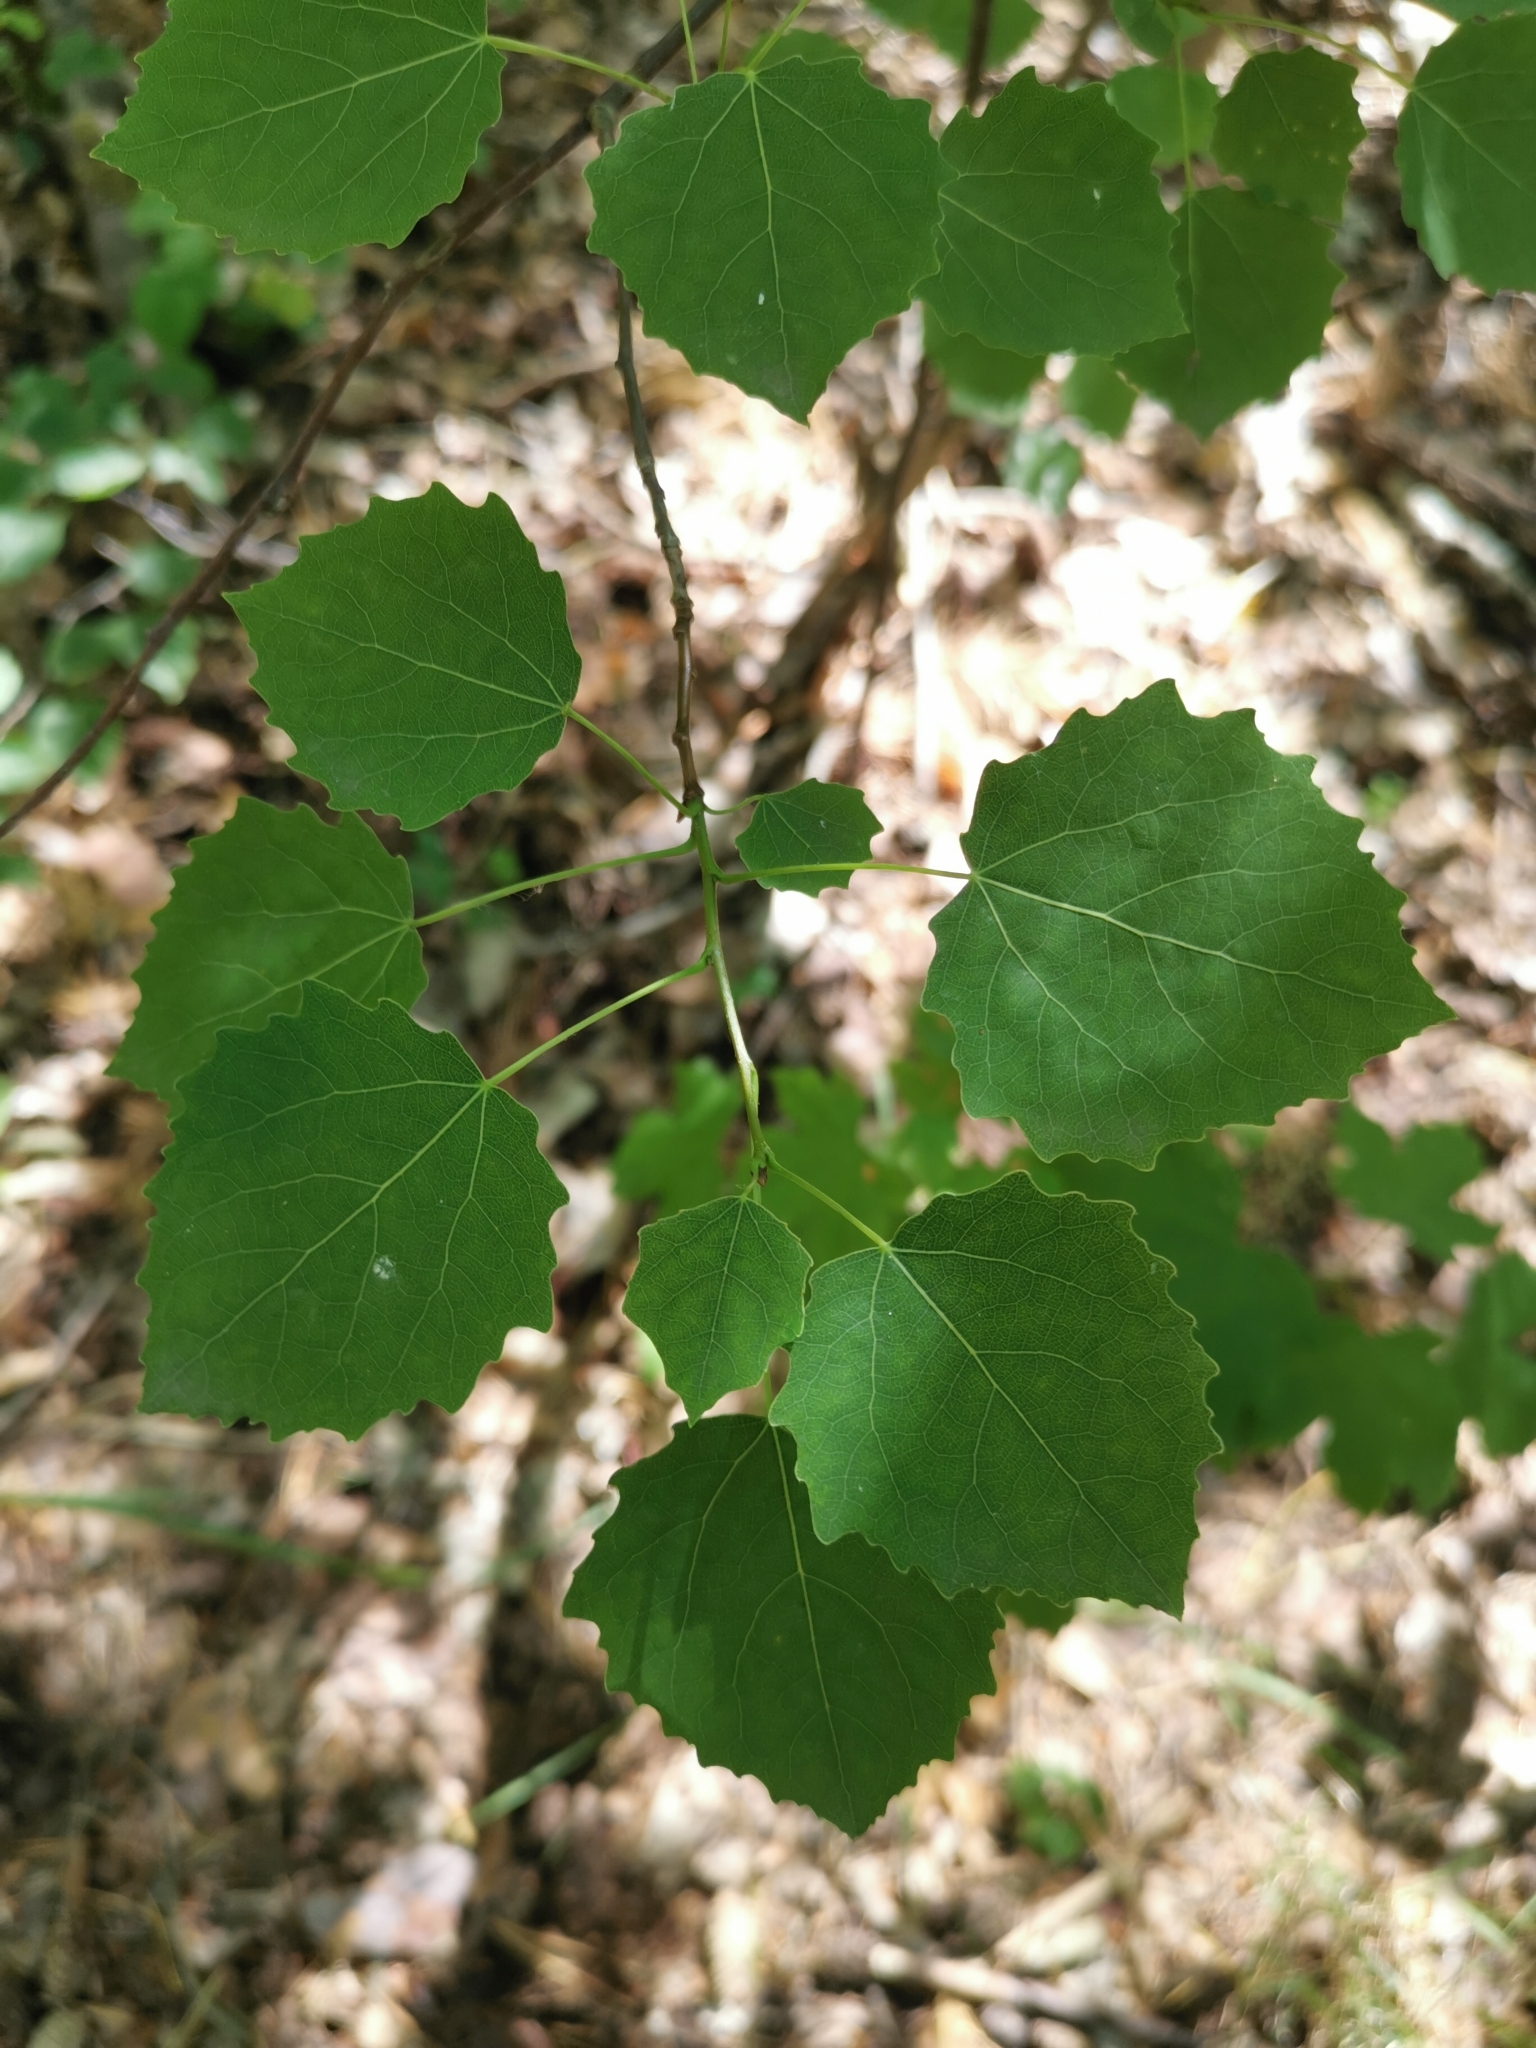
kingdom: Plantae
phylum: Tracheophyta
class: Magnoliopsida
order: Malpighiales
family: Salicaceae
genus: Populus
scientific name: Populus tremula
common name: European aspen
